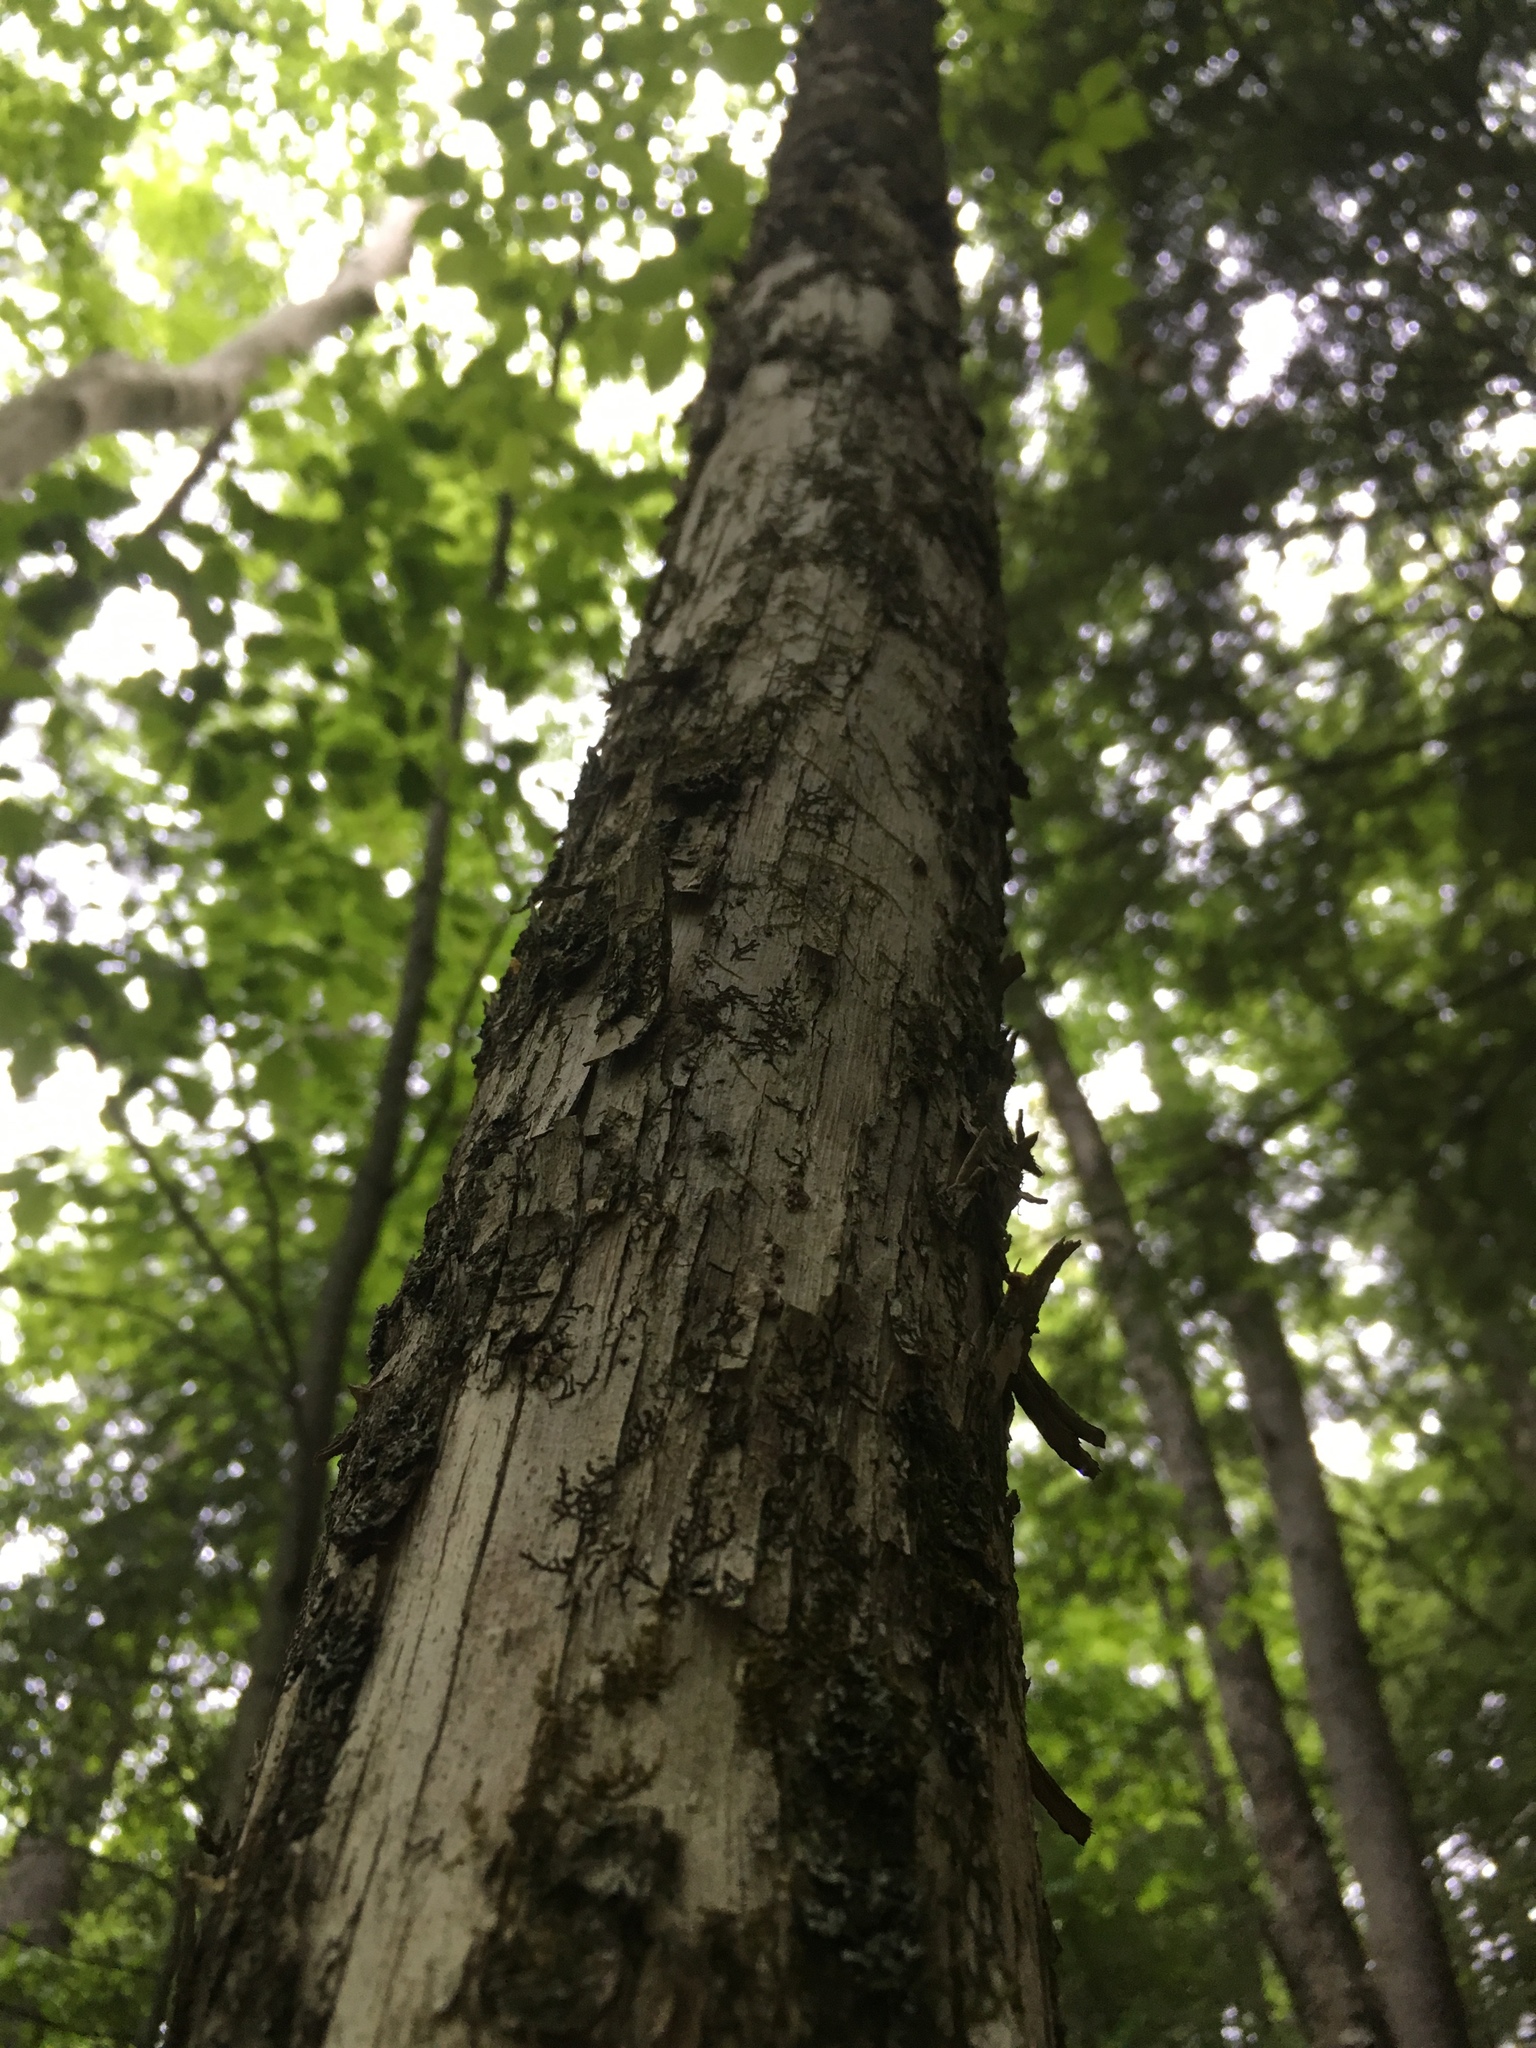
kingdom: Plantae
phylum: Tracheophyta
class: Magnoliopsida
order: Fagales
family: Betulaceae
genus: Ostrya
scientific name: Ostrya virginiana
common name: Ironwood
